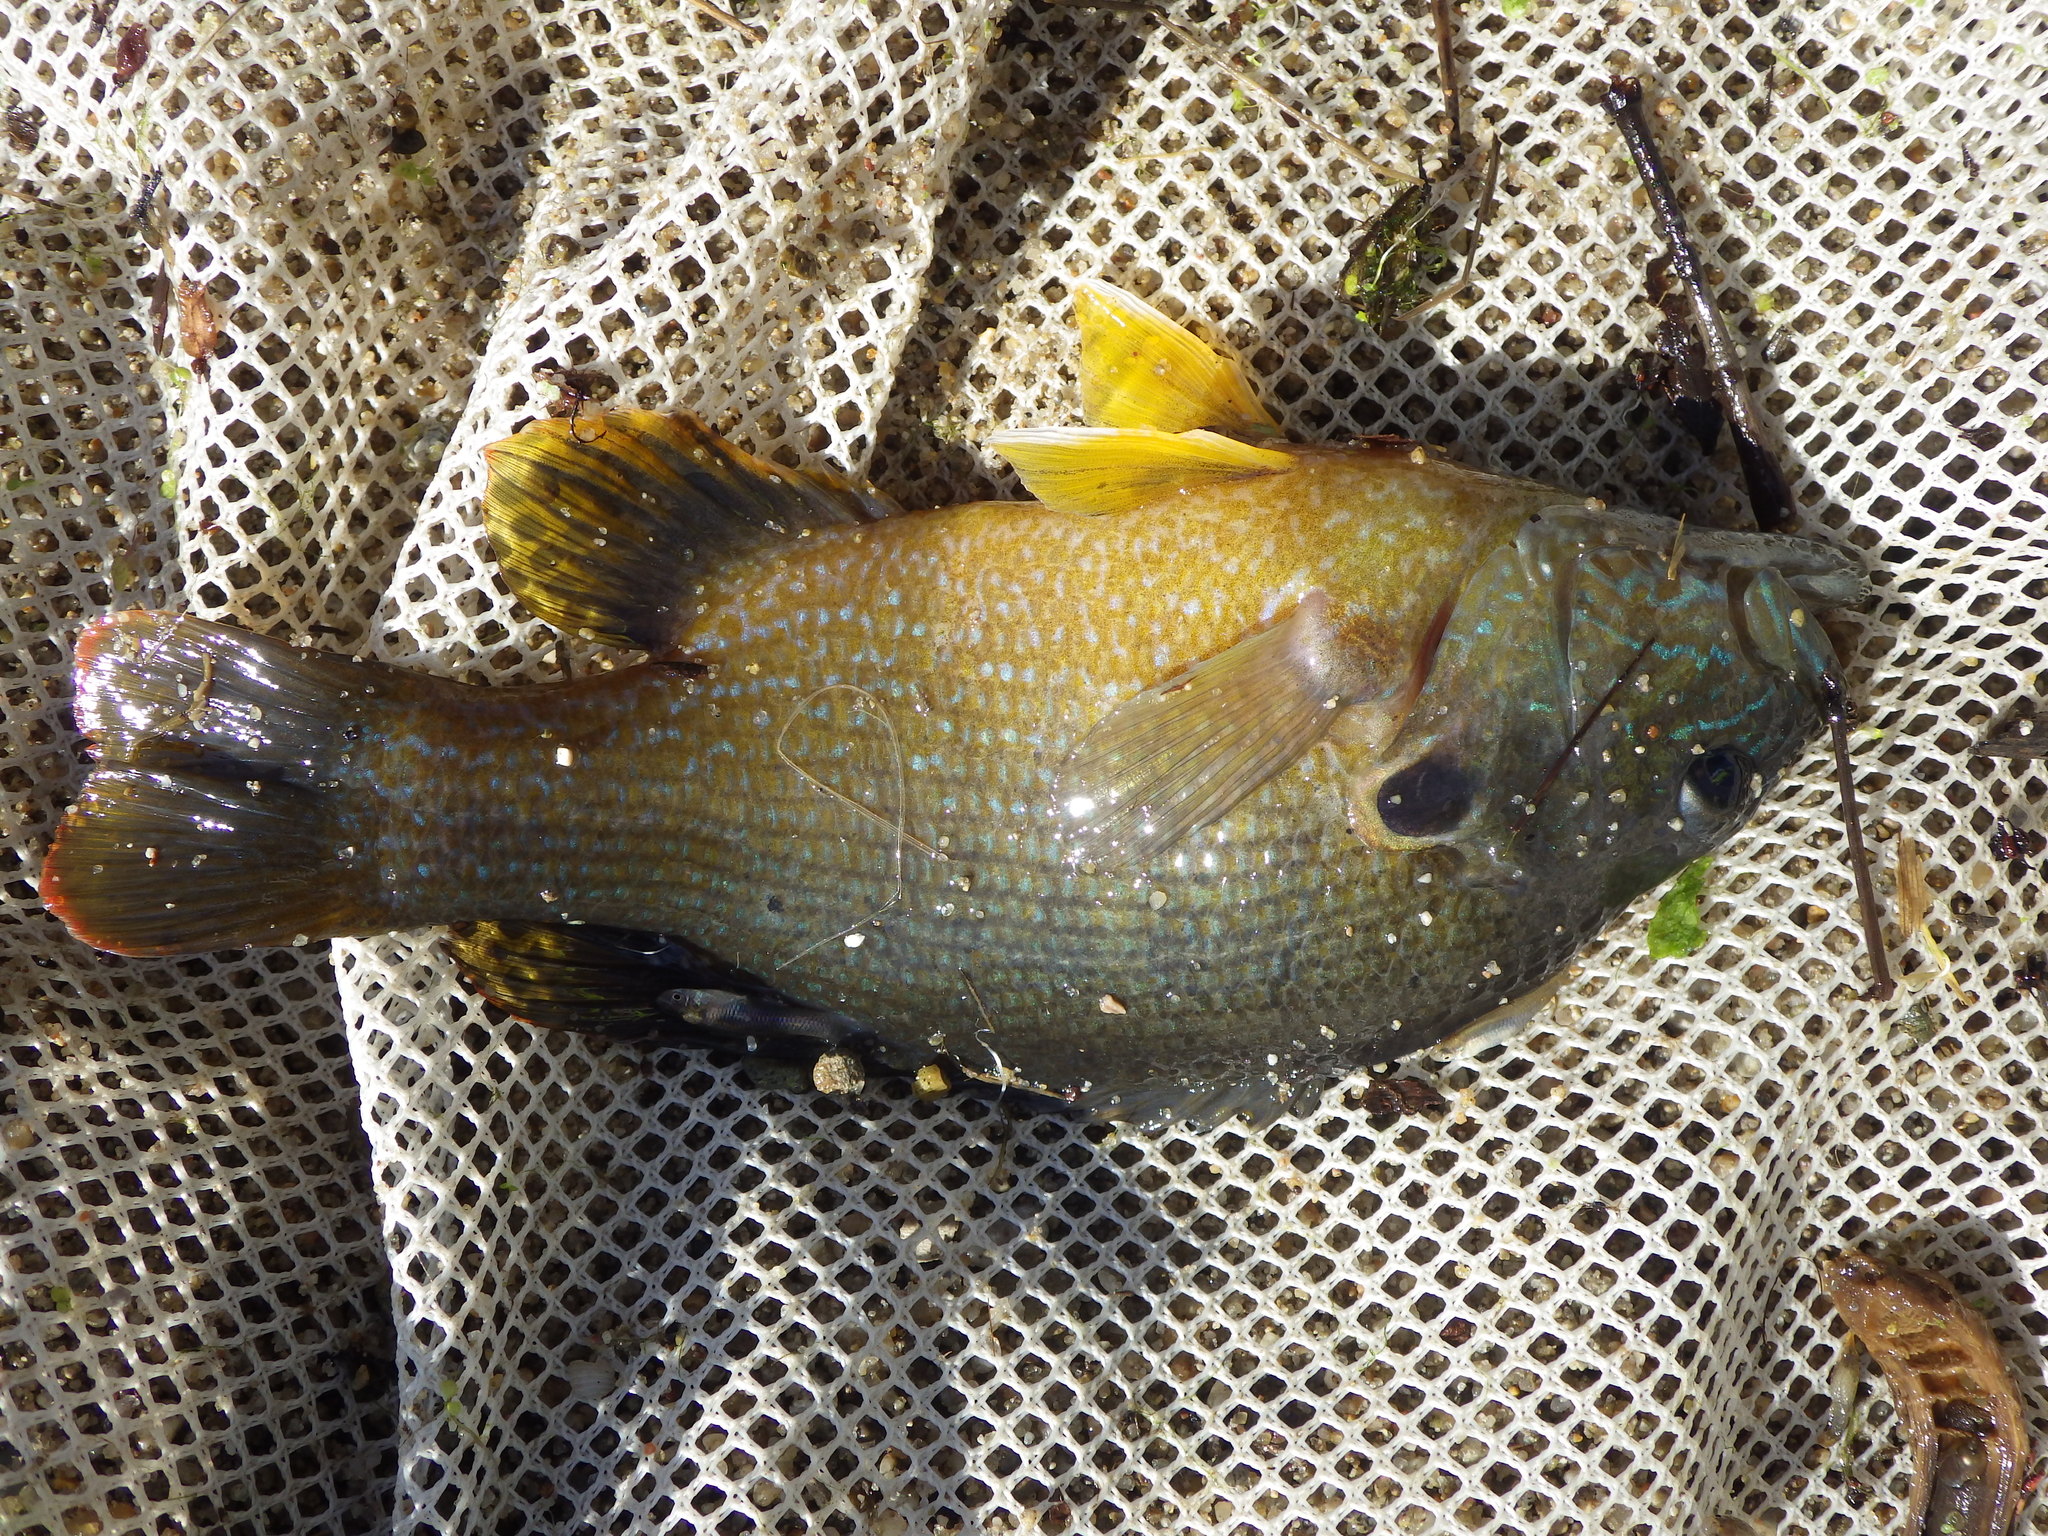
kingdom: Animalia
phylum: Chordata
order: Perciformes
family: Centrarchidae
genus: Lepomis
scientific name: Lepomis cyanellus
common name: Green sunfish
